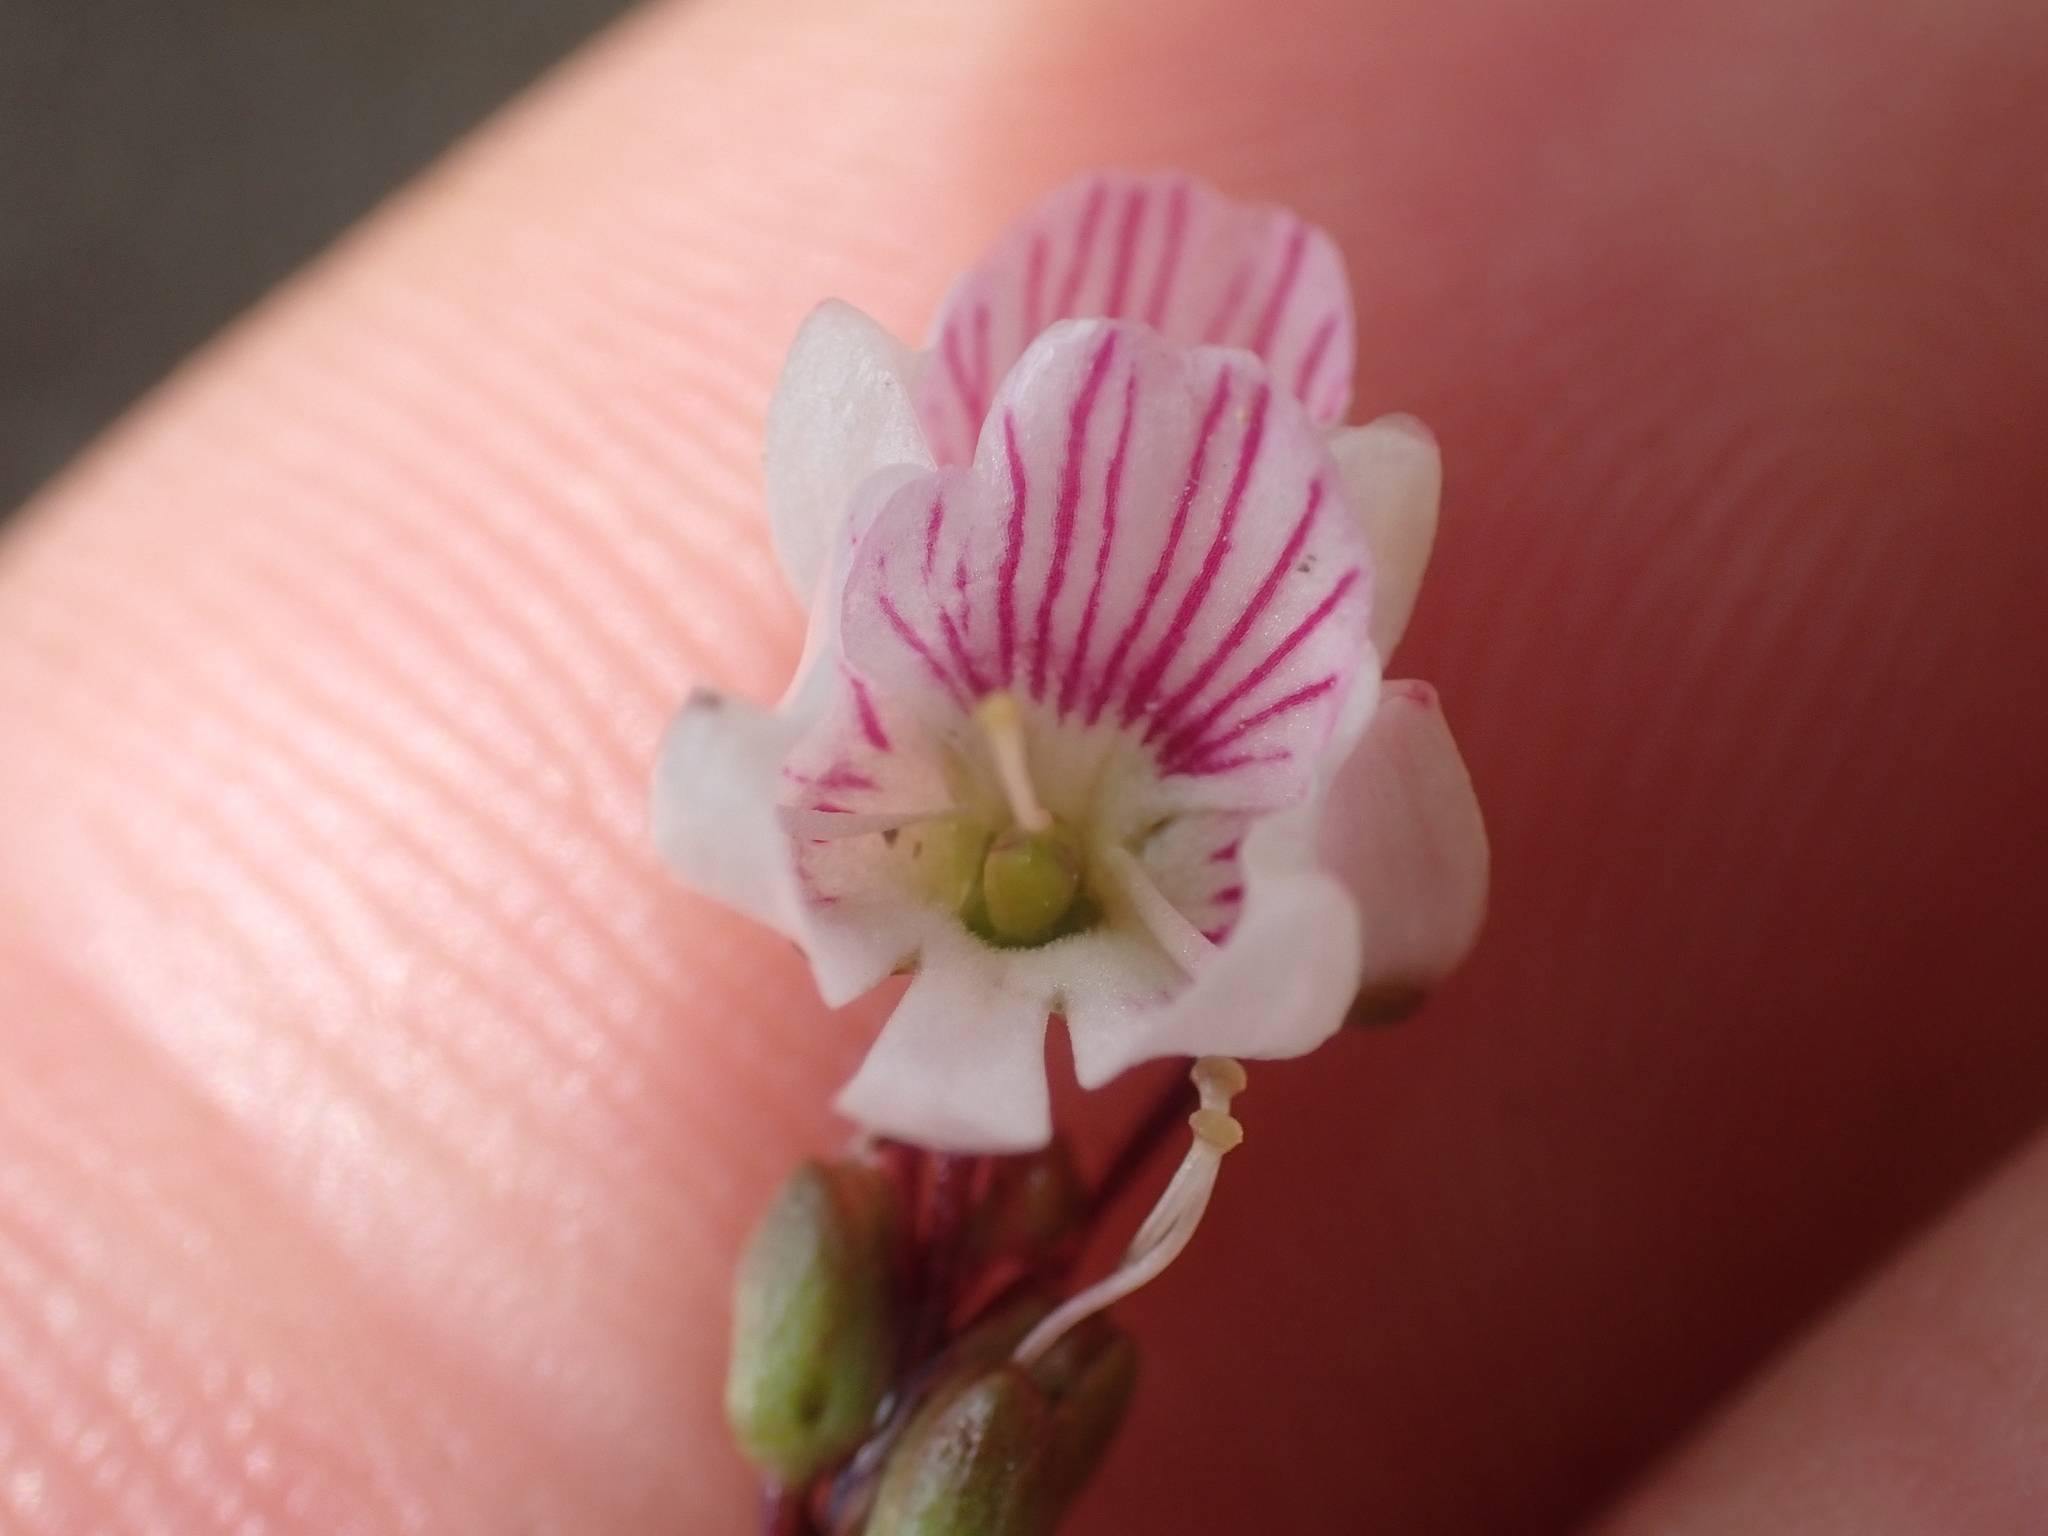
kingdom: Plantae
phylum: Tracheophyta
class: Magnoliopsida
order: Lamiales
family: Plantaginaceae
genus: Veronica
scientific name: Veronica decora
